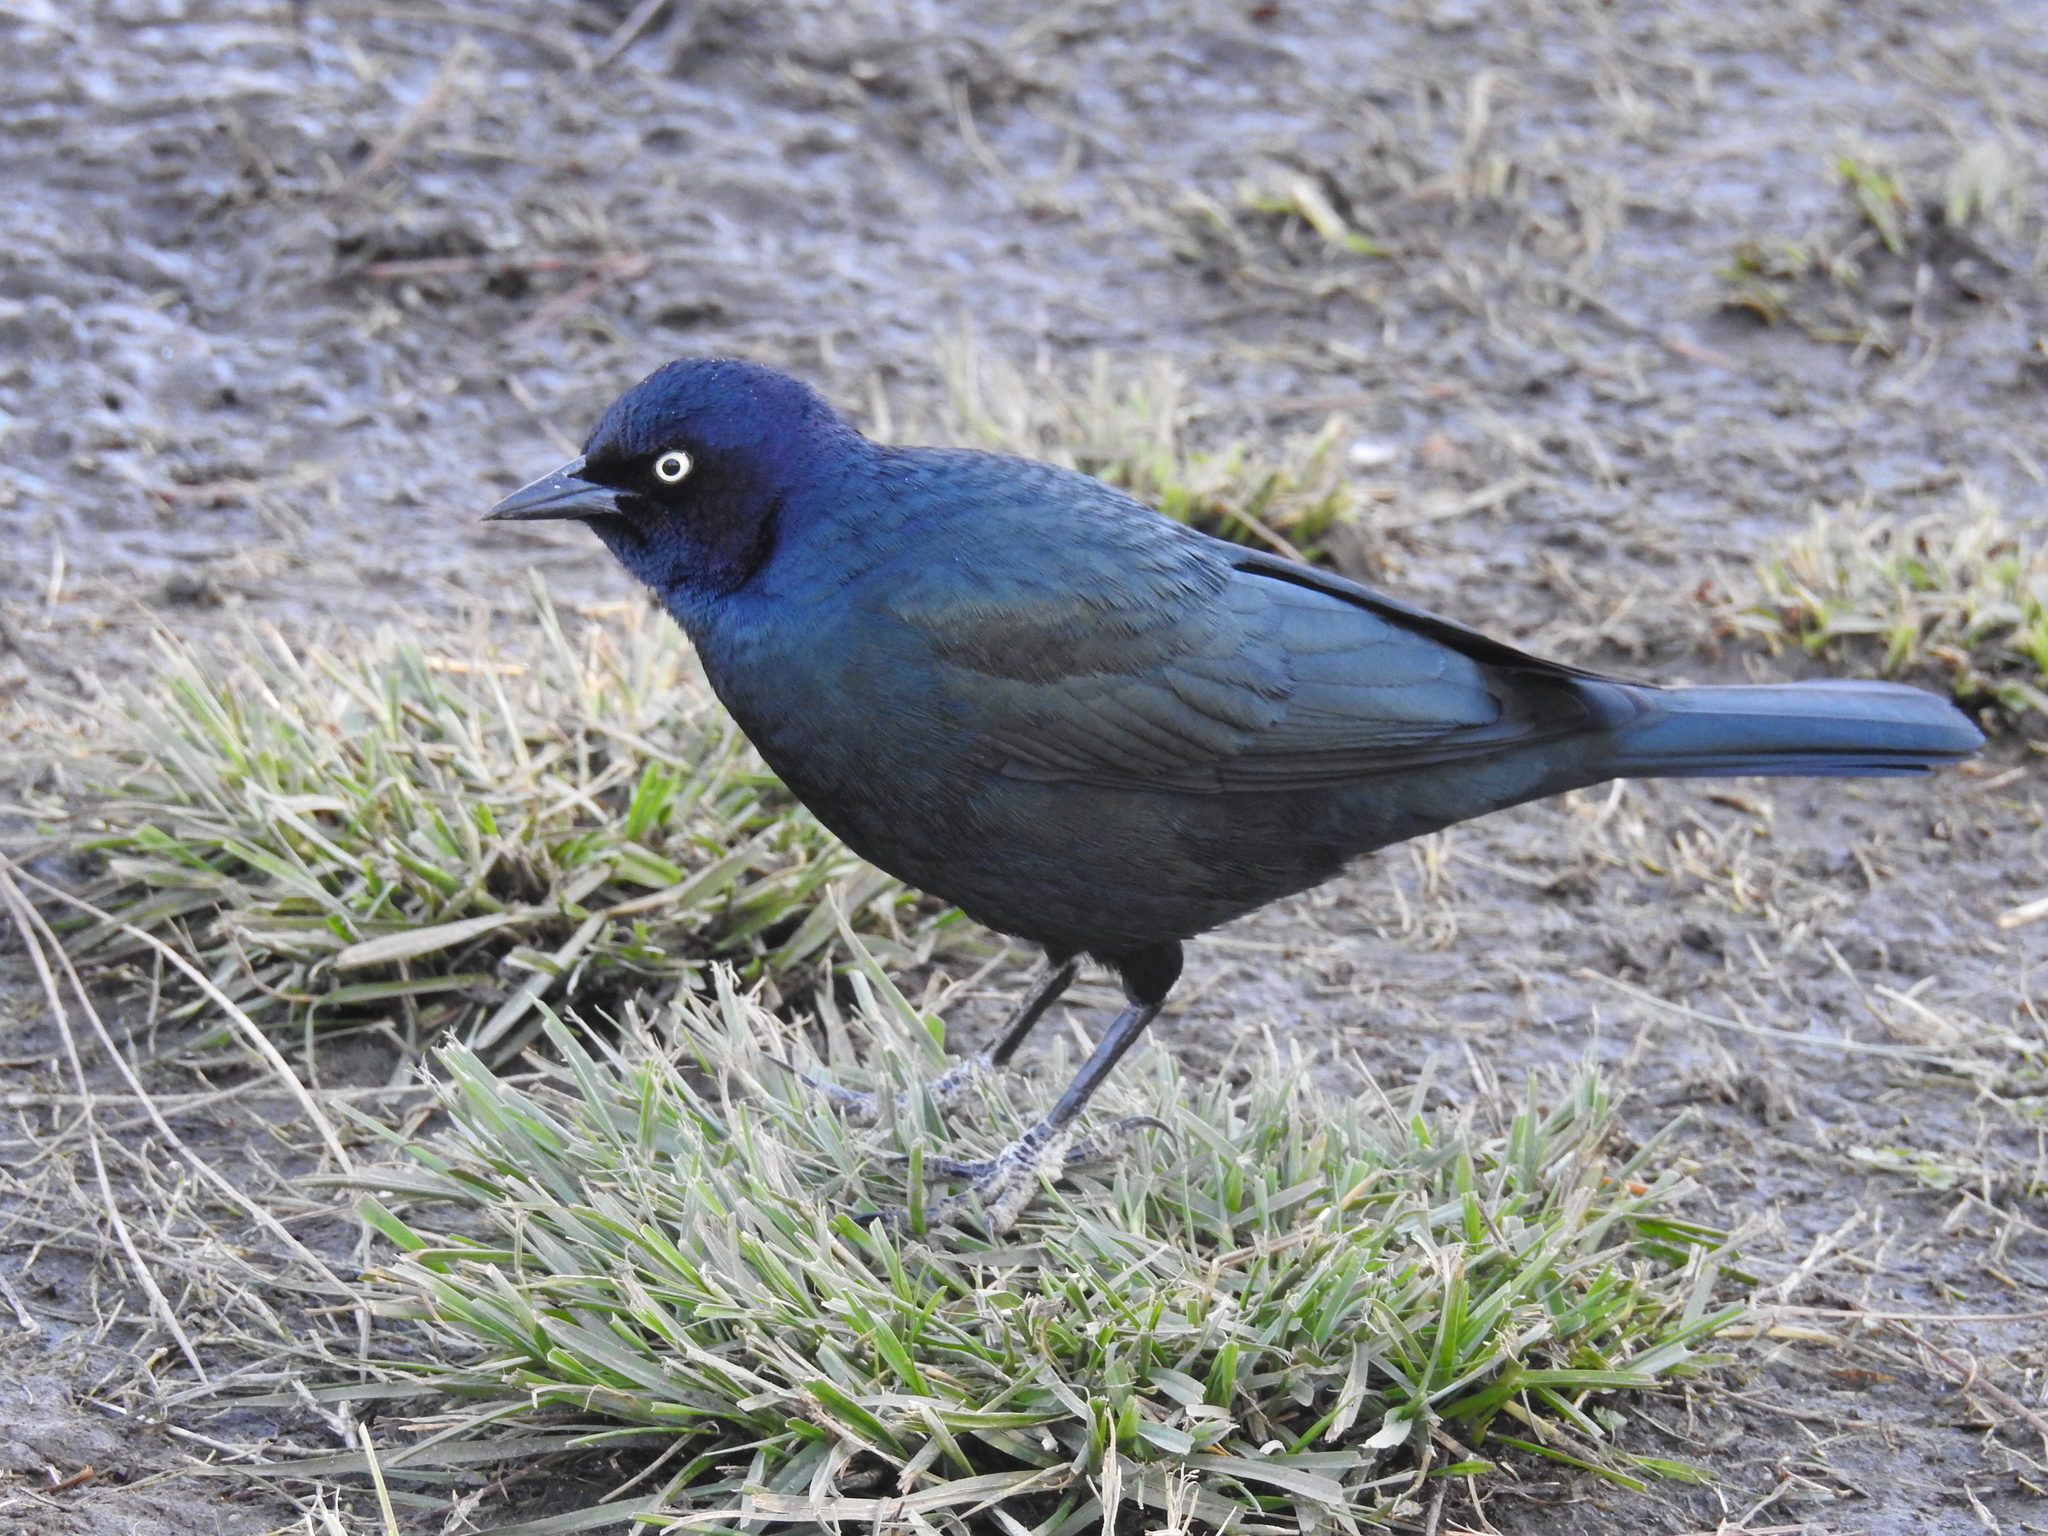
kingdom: Animalia
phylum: Chordata
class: Aves
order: Passeriformes
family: Icteridae
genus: Euphagus
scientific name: Euphagus cyanocephalus
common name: Brewer's blackbird
